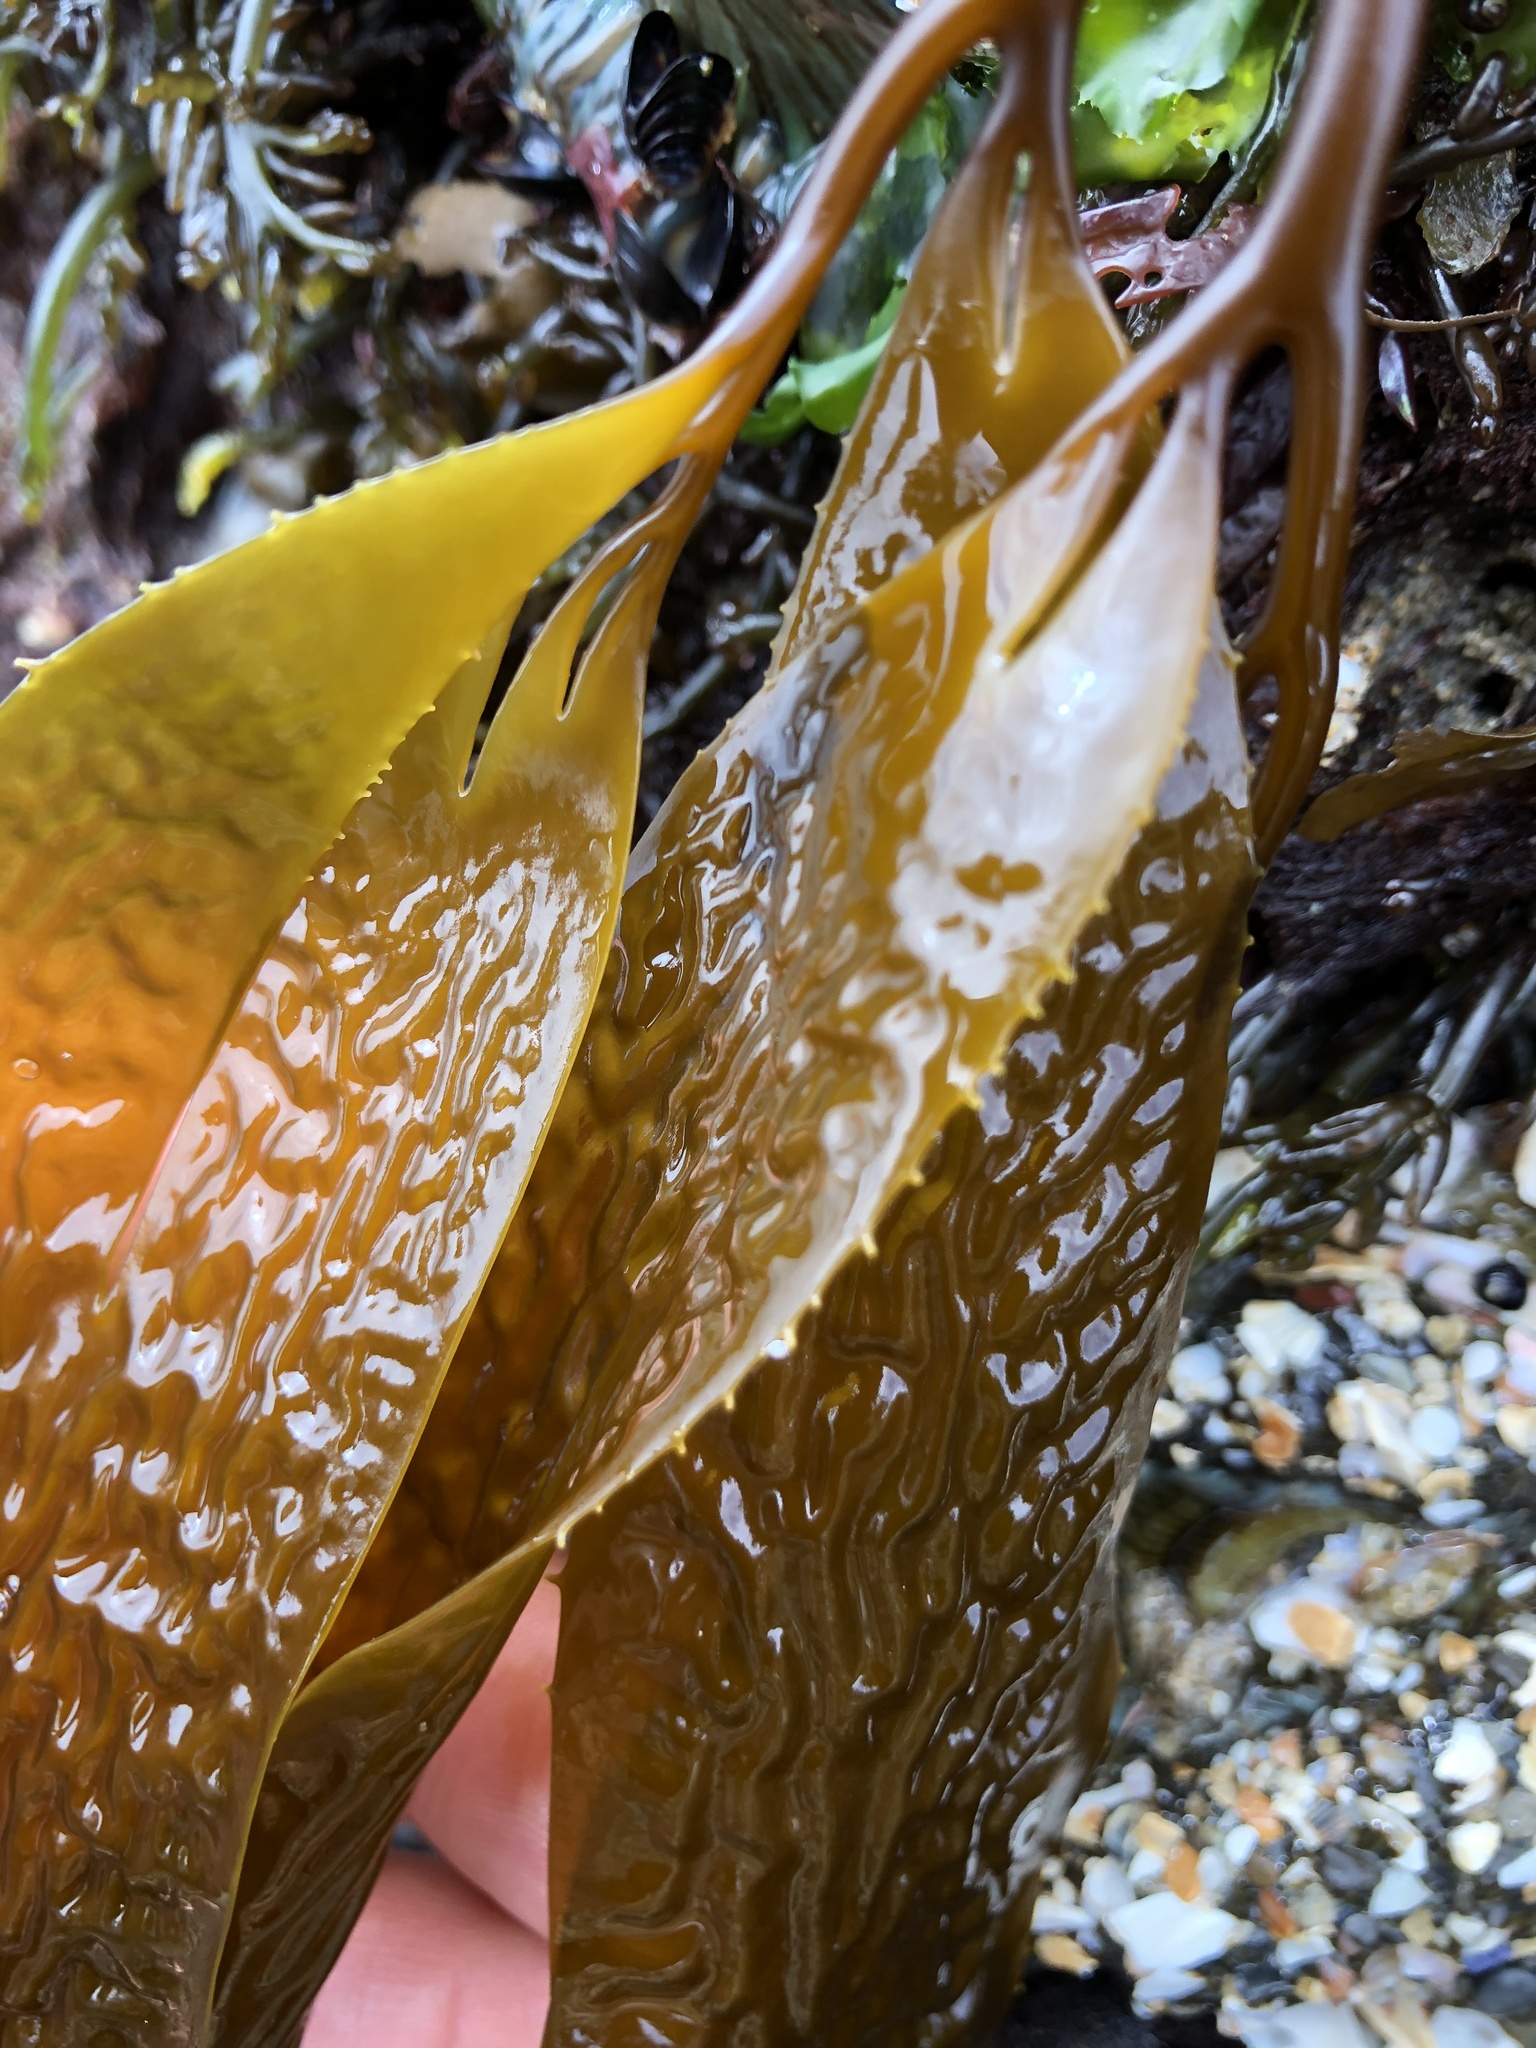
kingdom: Chromista
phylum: Ochrophyta
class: Phaeophyceae
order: Laminariales
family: Laminariaceae
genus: Macrocystis
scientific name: Macrocystis pyrifera
